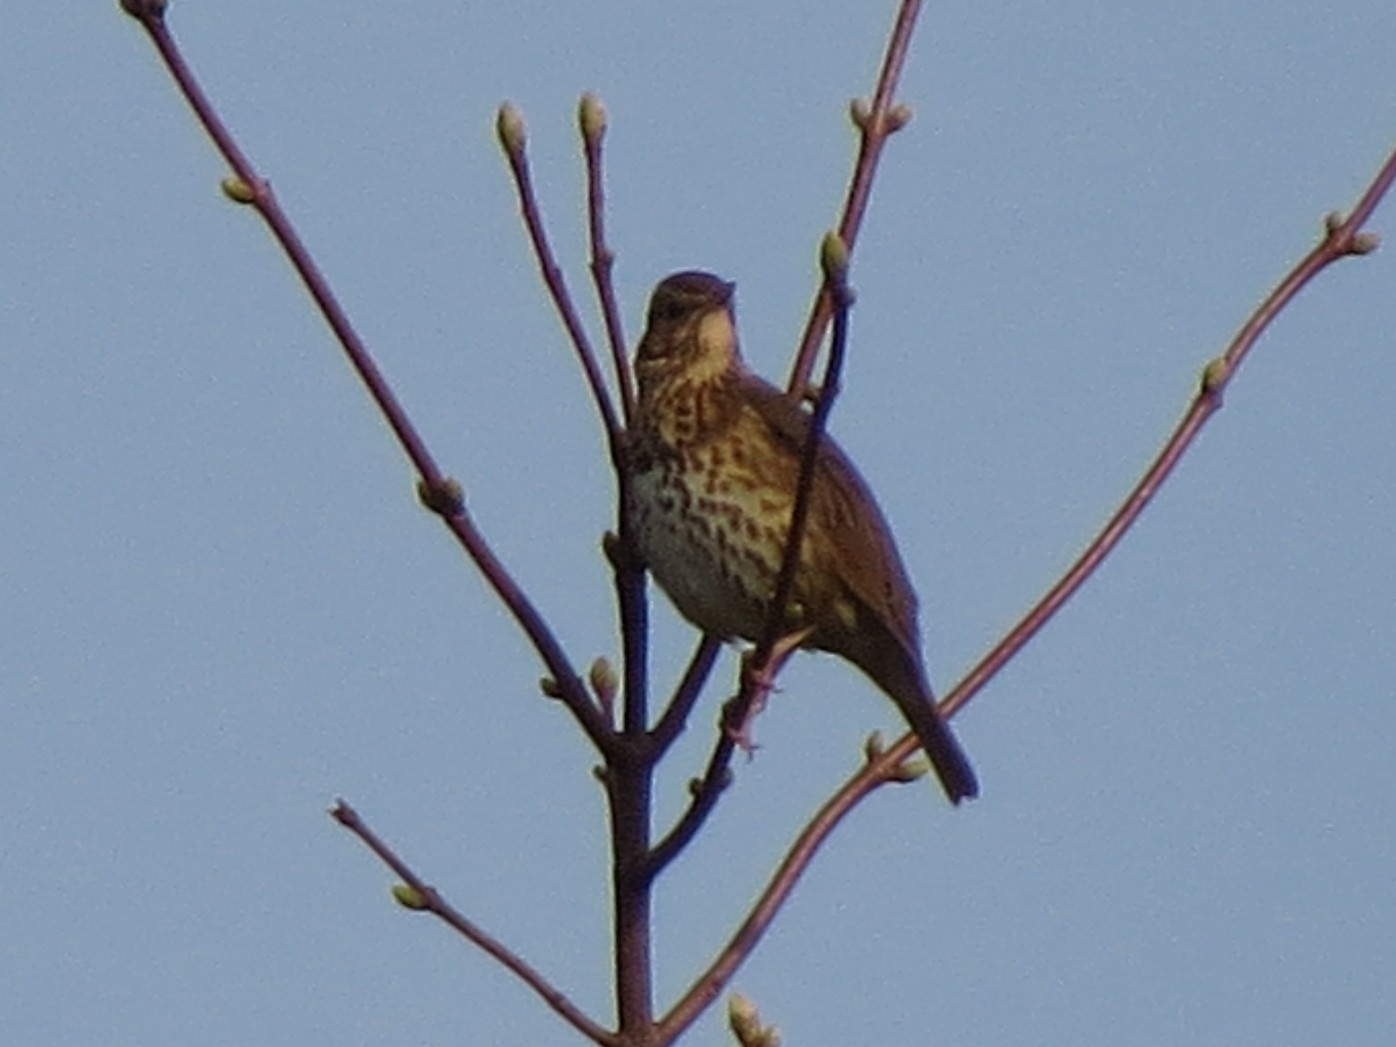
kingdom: Animalia
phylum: Chordata
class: Aves
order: Passeriformes
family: Turdidae
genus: Turdus
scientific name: Turdus philomelos
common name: Song thrush
